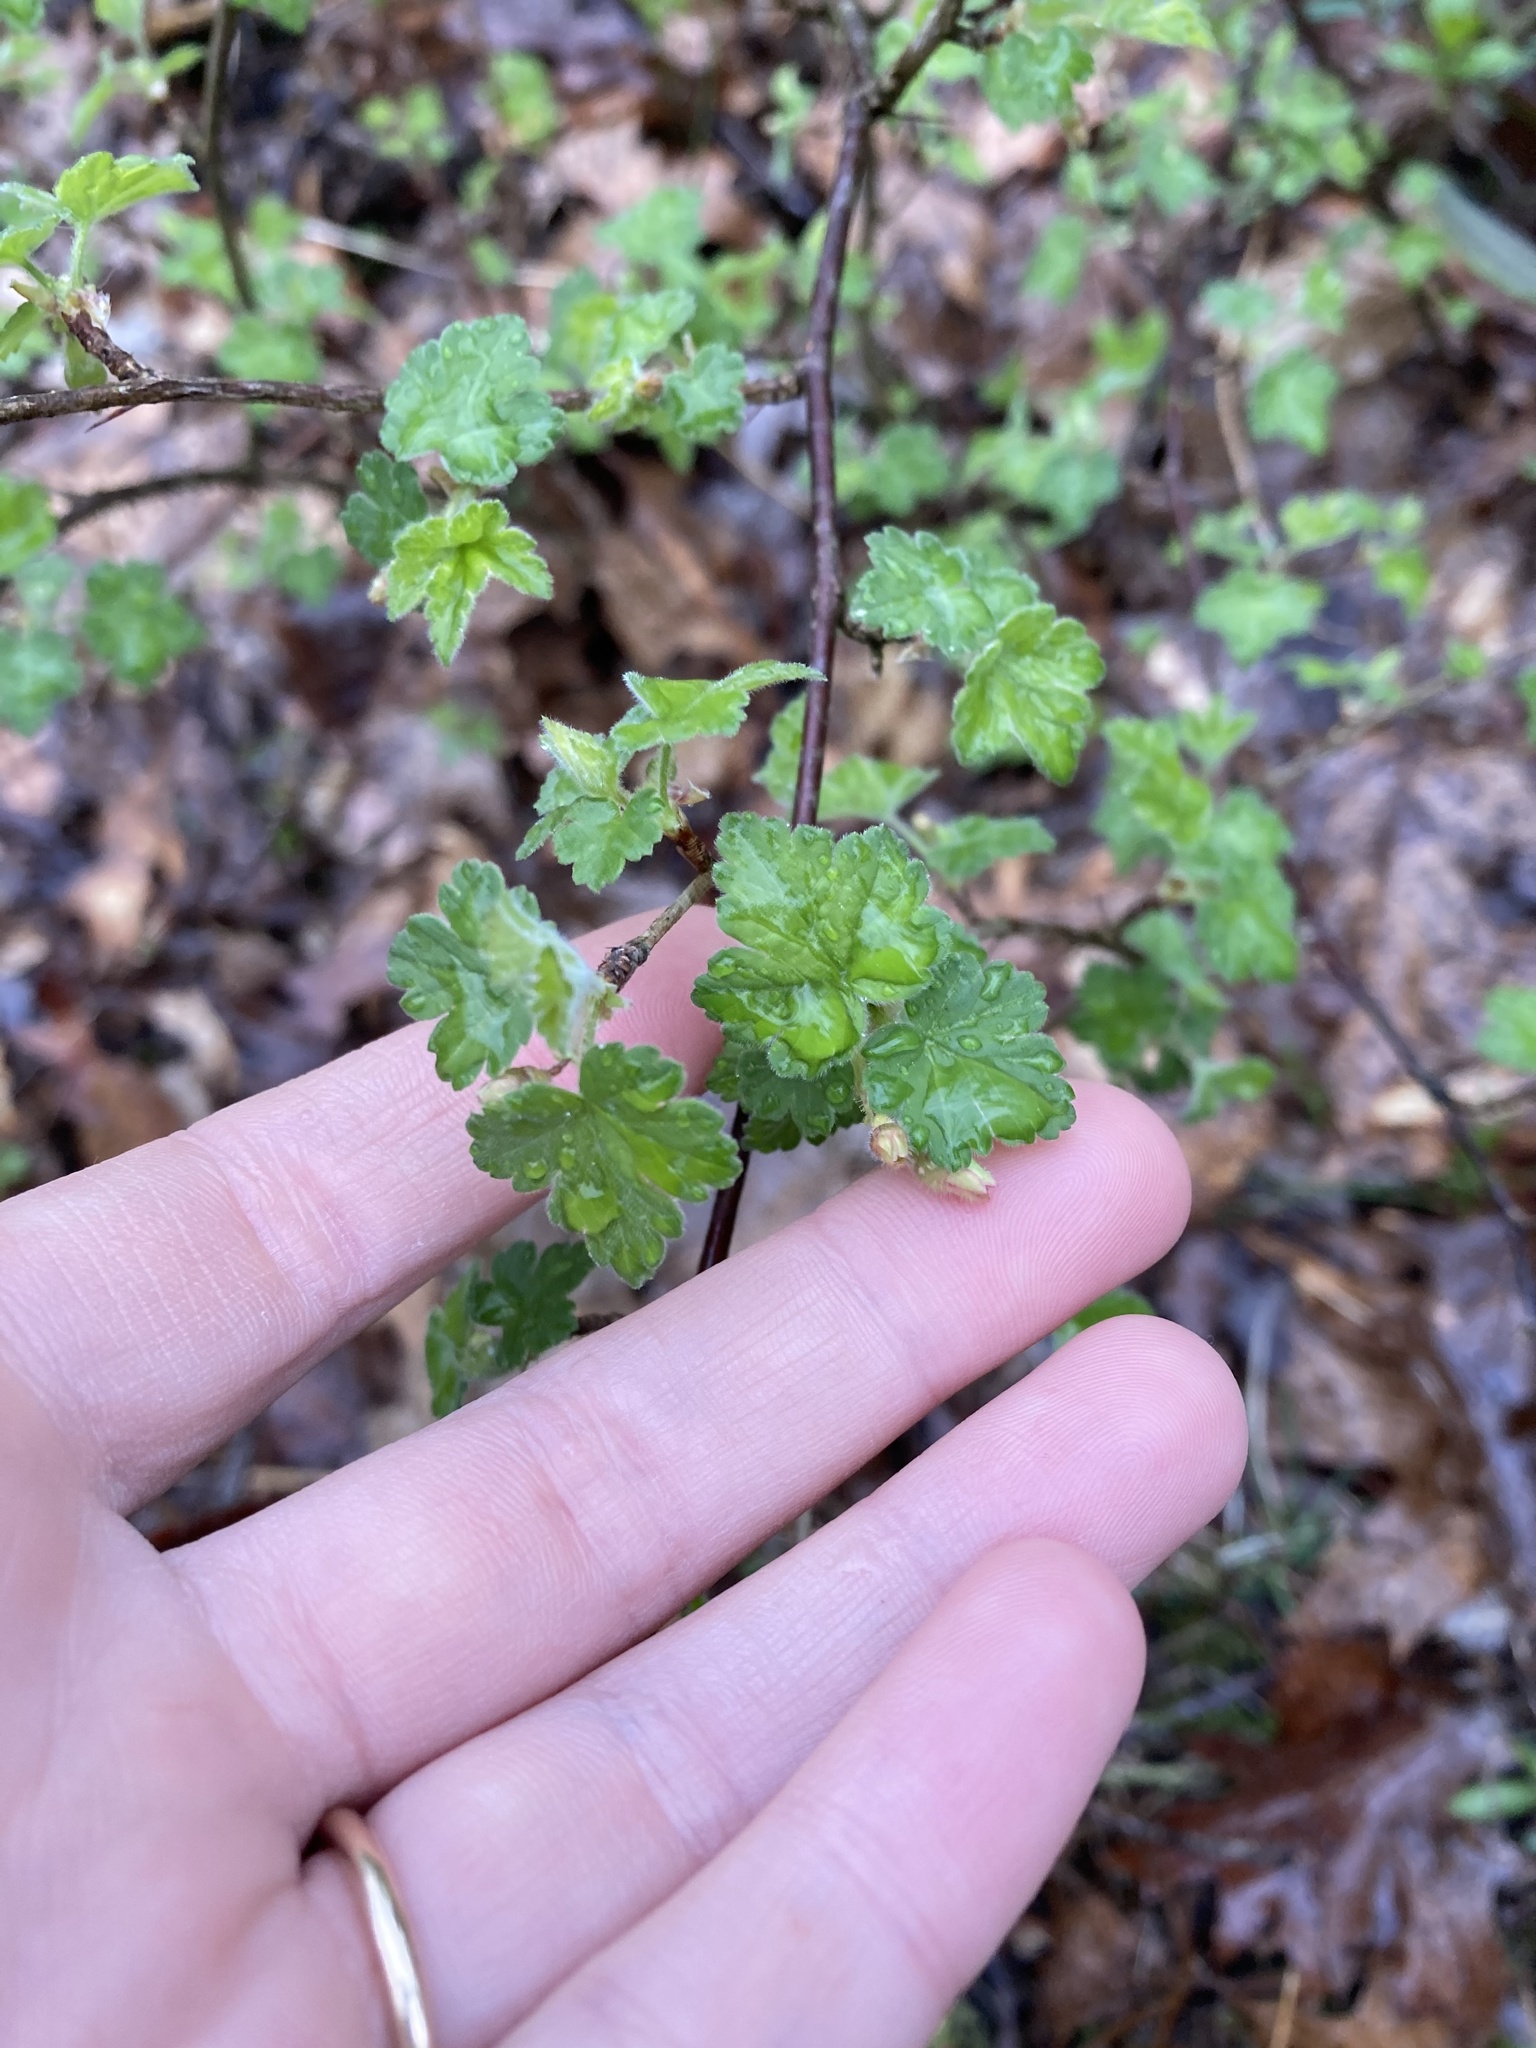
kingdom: Plantae
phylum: Tracheophyta
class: Magnoliopsida
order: Saxifragales
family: Grossulariaceae
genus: Ribes
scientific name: Ribes cynosbati
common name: American gooseberry
